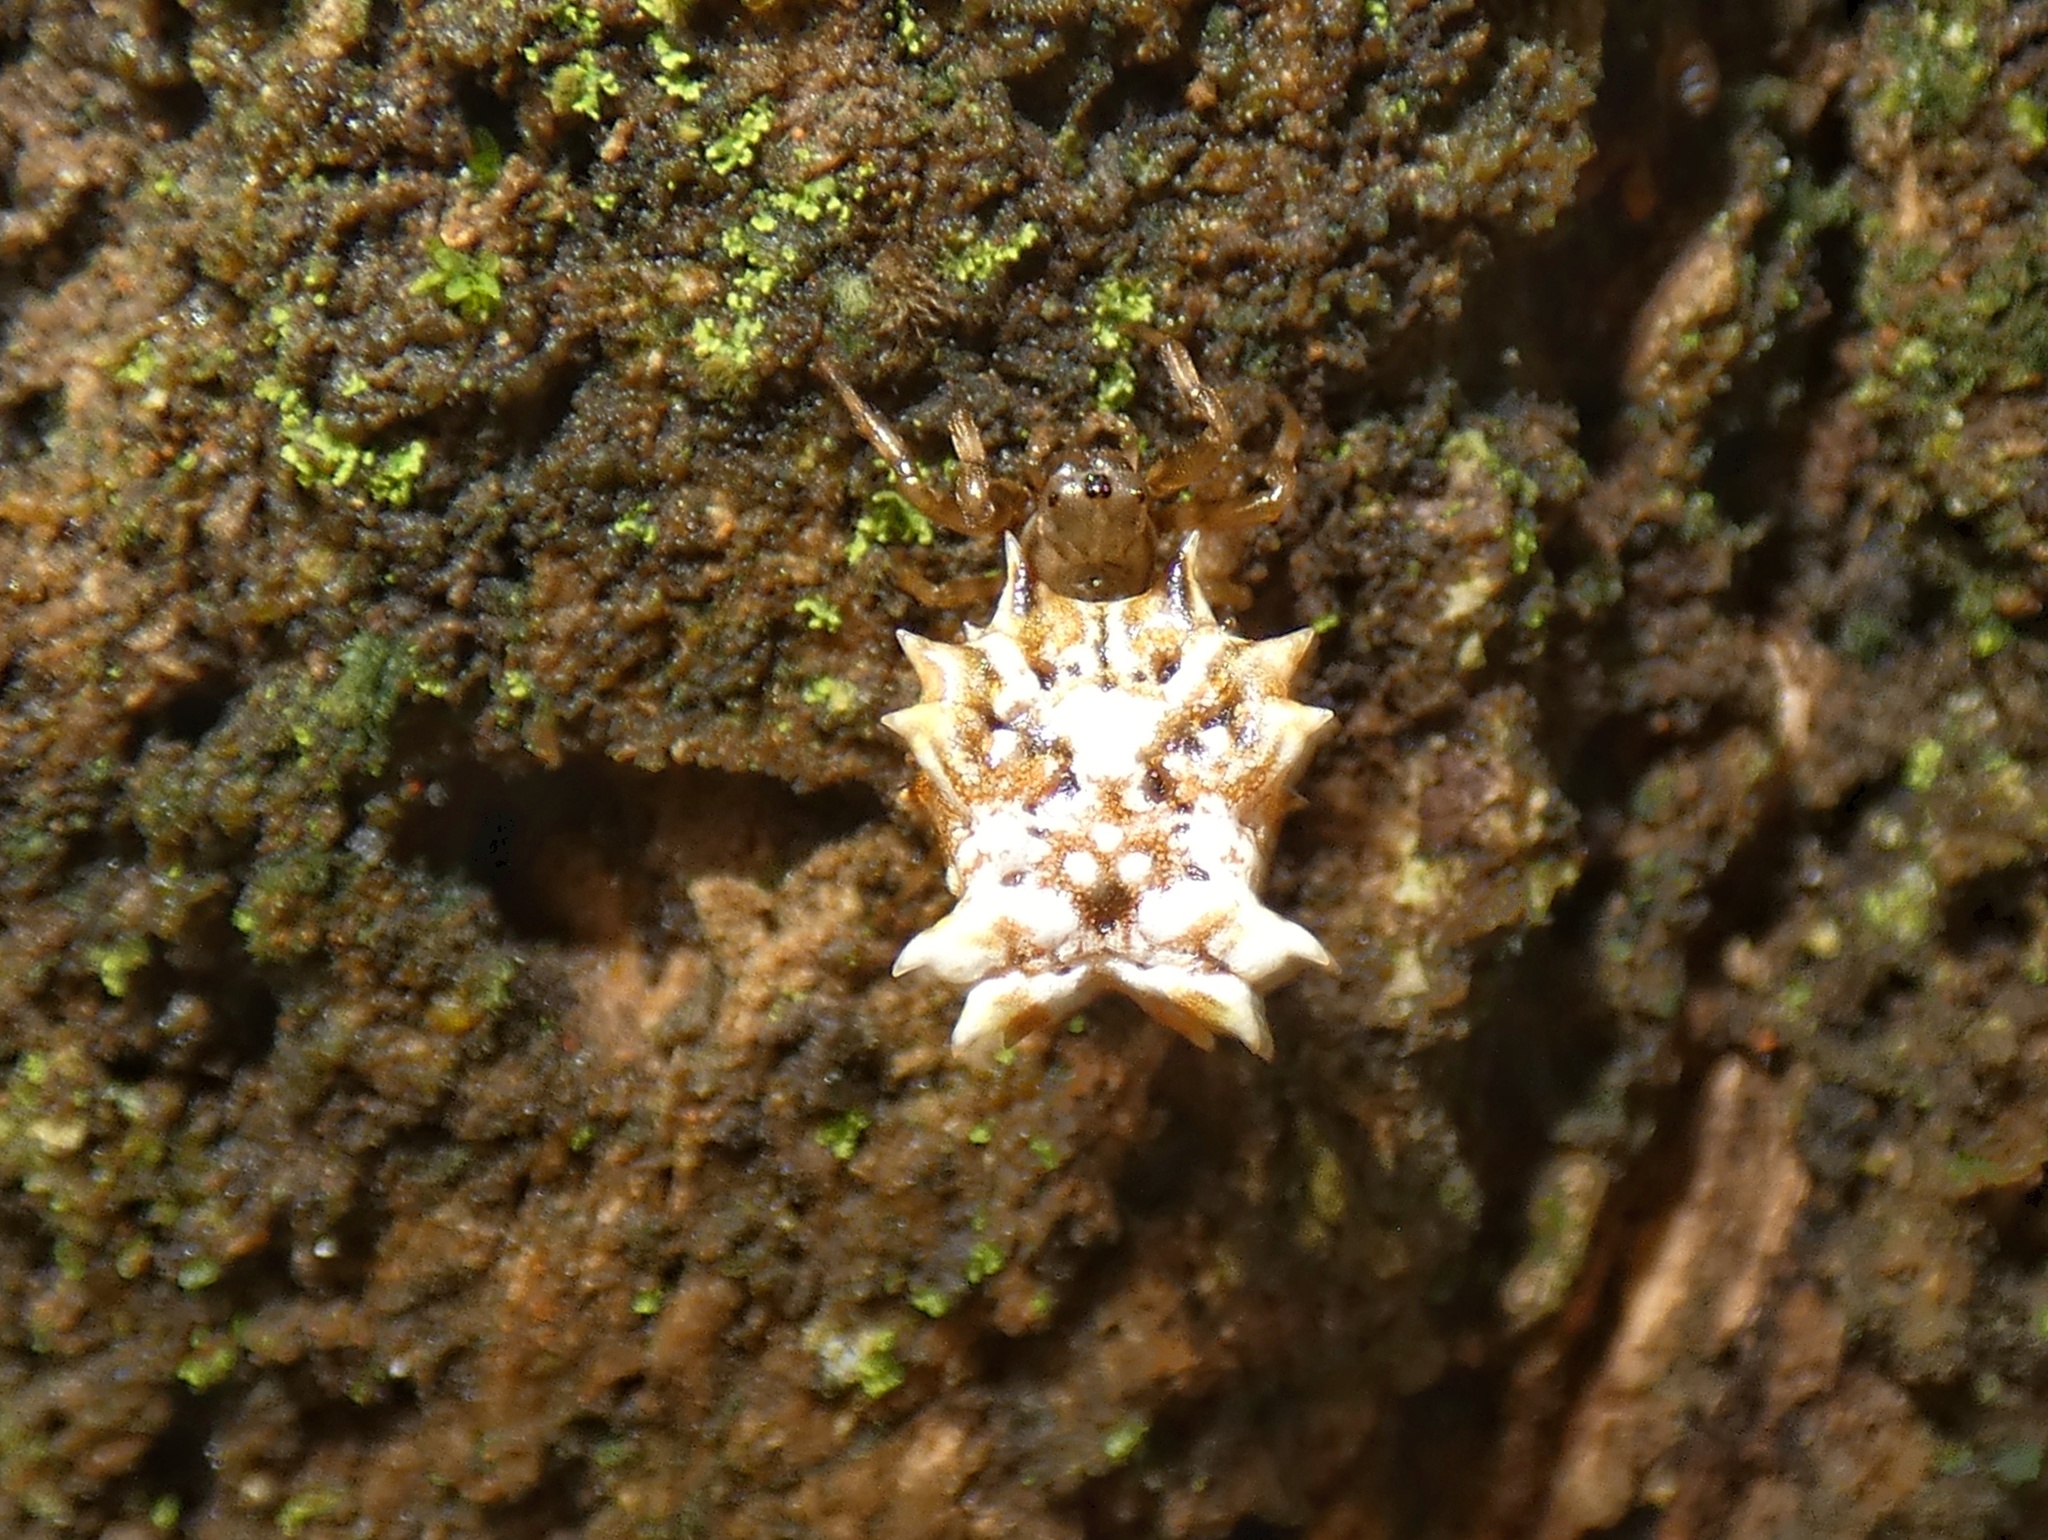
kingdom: Animalia
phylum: Arthropoda
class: Arachnida
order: Araneae
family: Araneidae
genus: Micrathena
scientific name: Micrathena horrida
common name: Orb weavers
